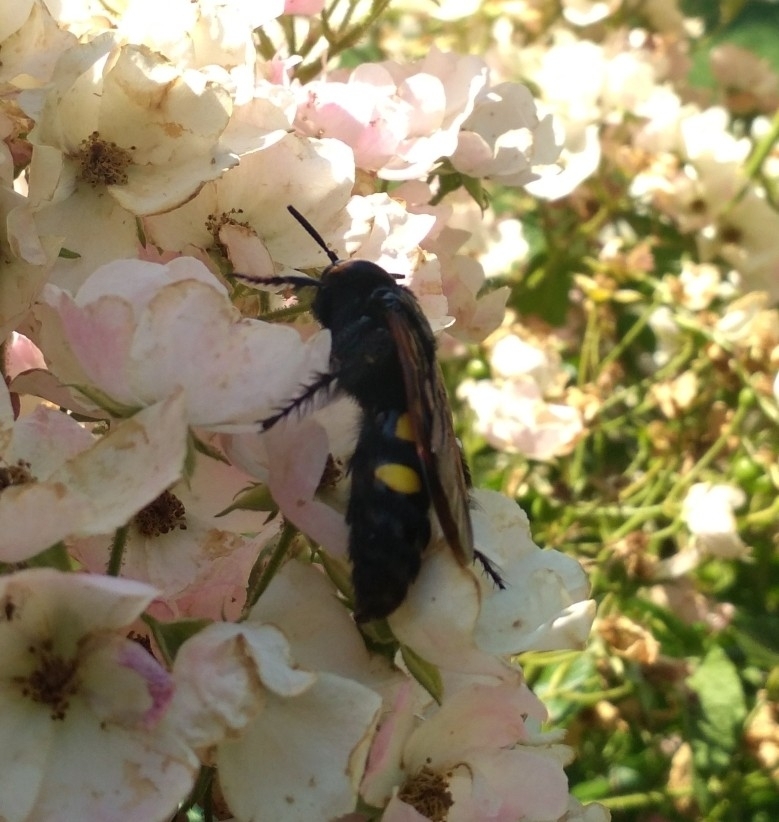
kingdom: Animalia
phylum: Arthropoda
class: Insecta
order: Hymenoptera
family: Scoliidae
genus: Megascolia
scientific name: Megascolia maculata
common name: Mammoth wasp
